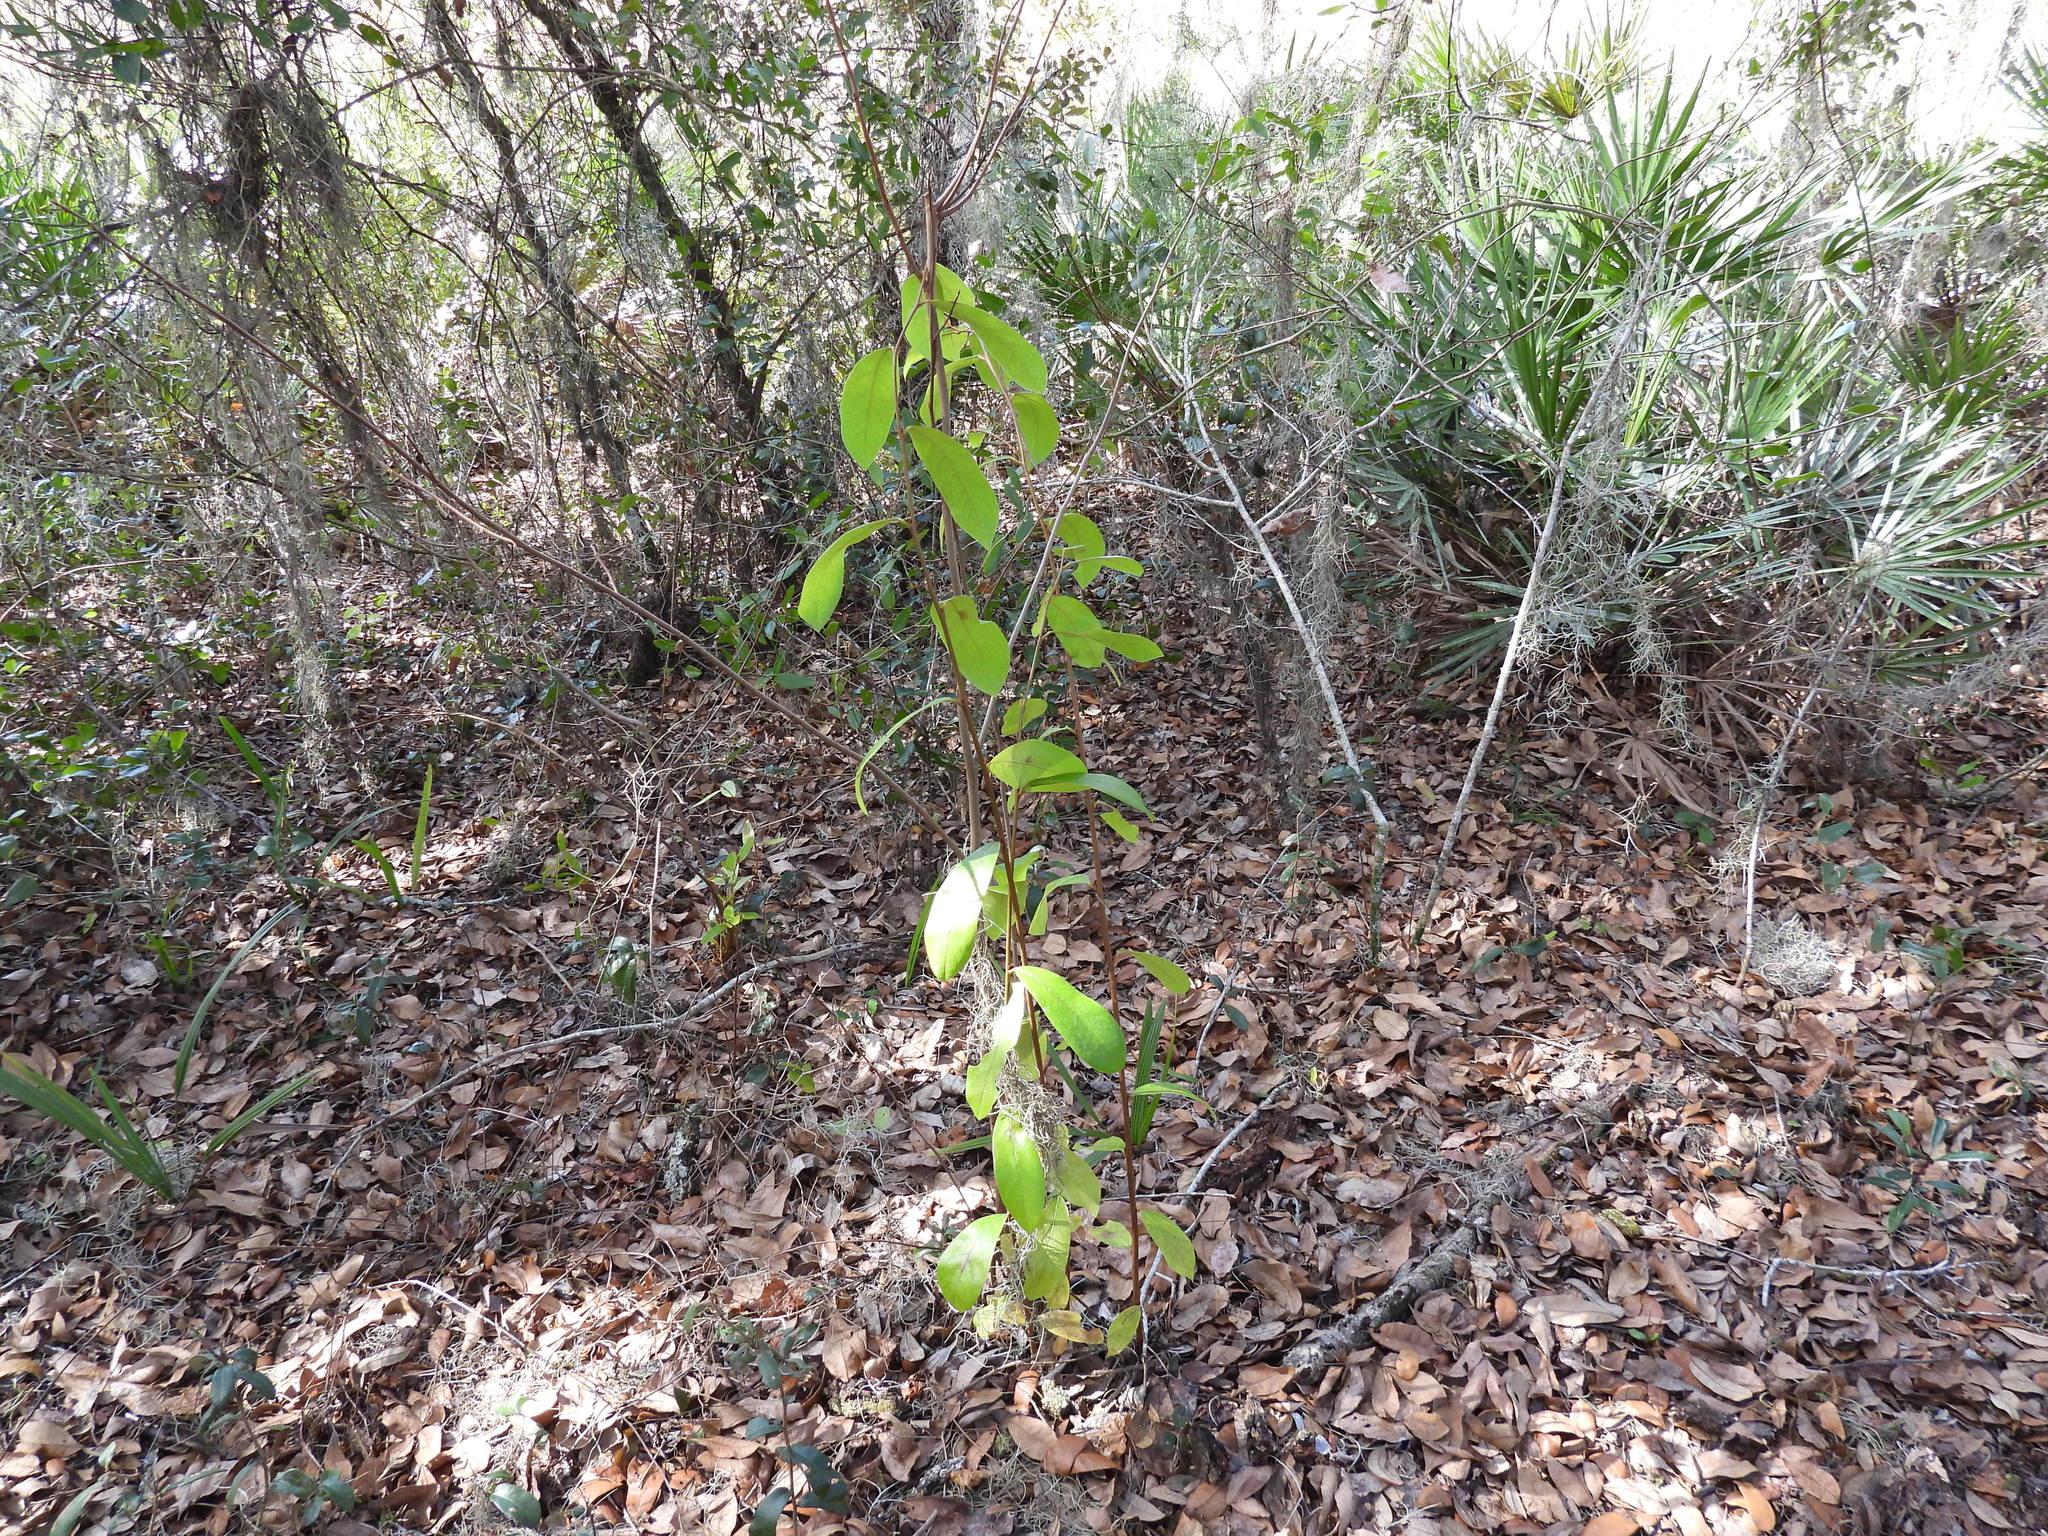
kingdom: Plantae
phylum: Tracheophyta
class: Magnoliopsida
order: Magnoliales
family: Annonaceae
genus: Asimina
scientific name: Asimina obovata
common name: Flag pawpaw
